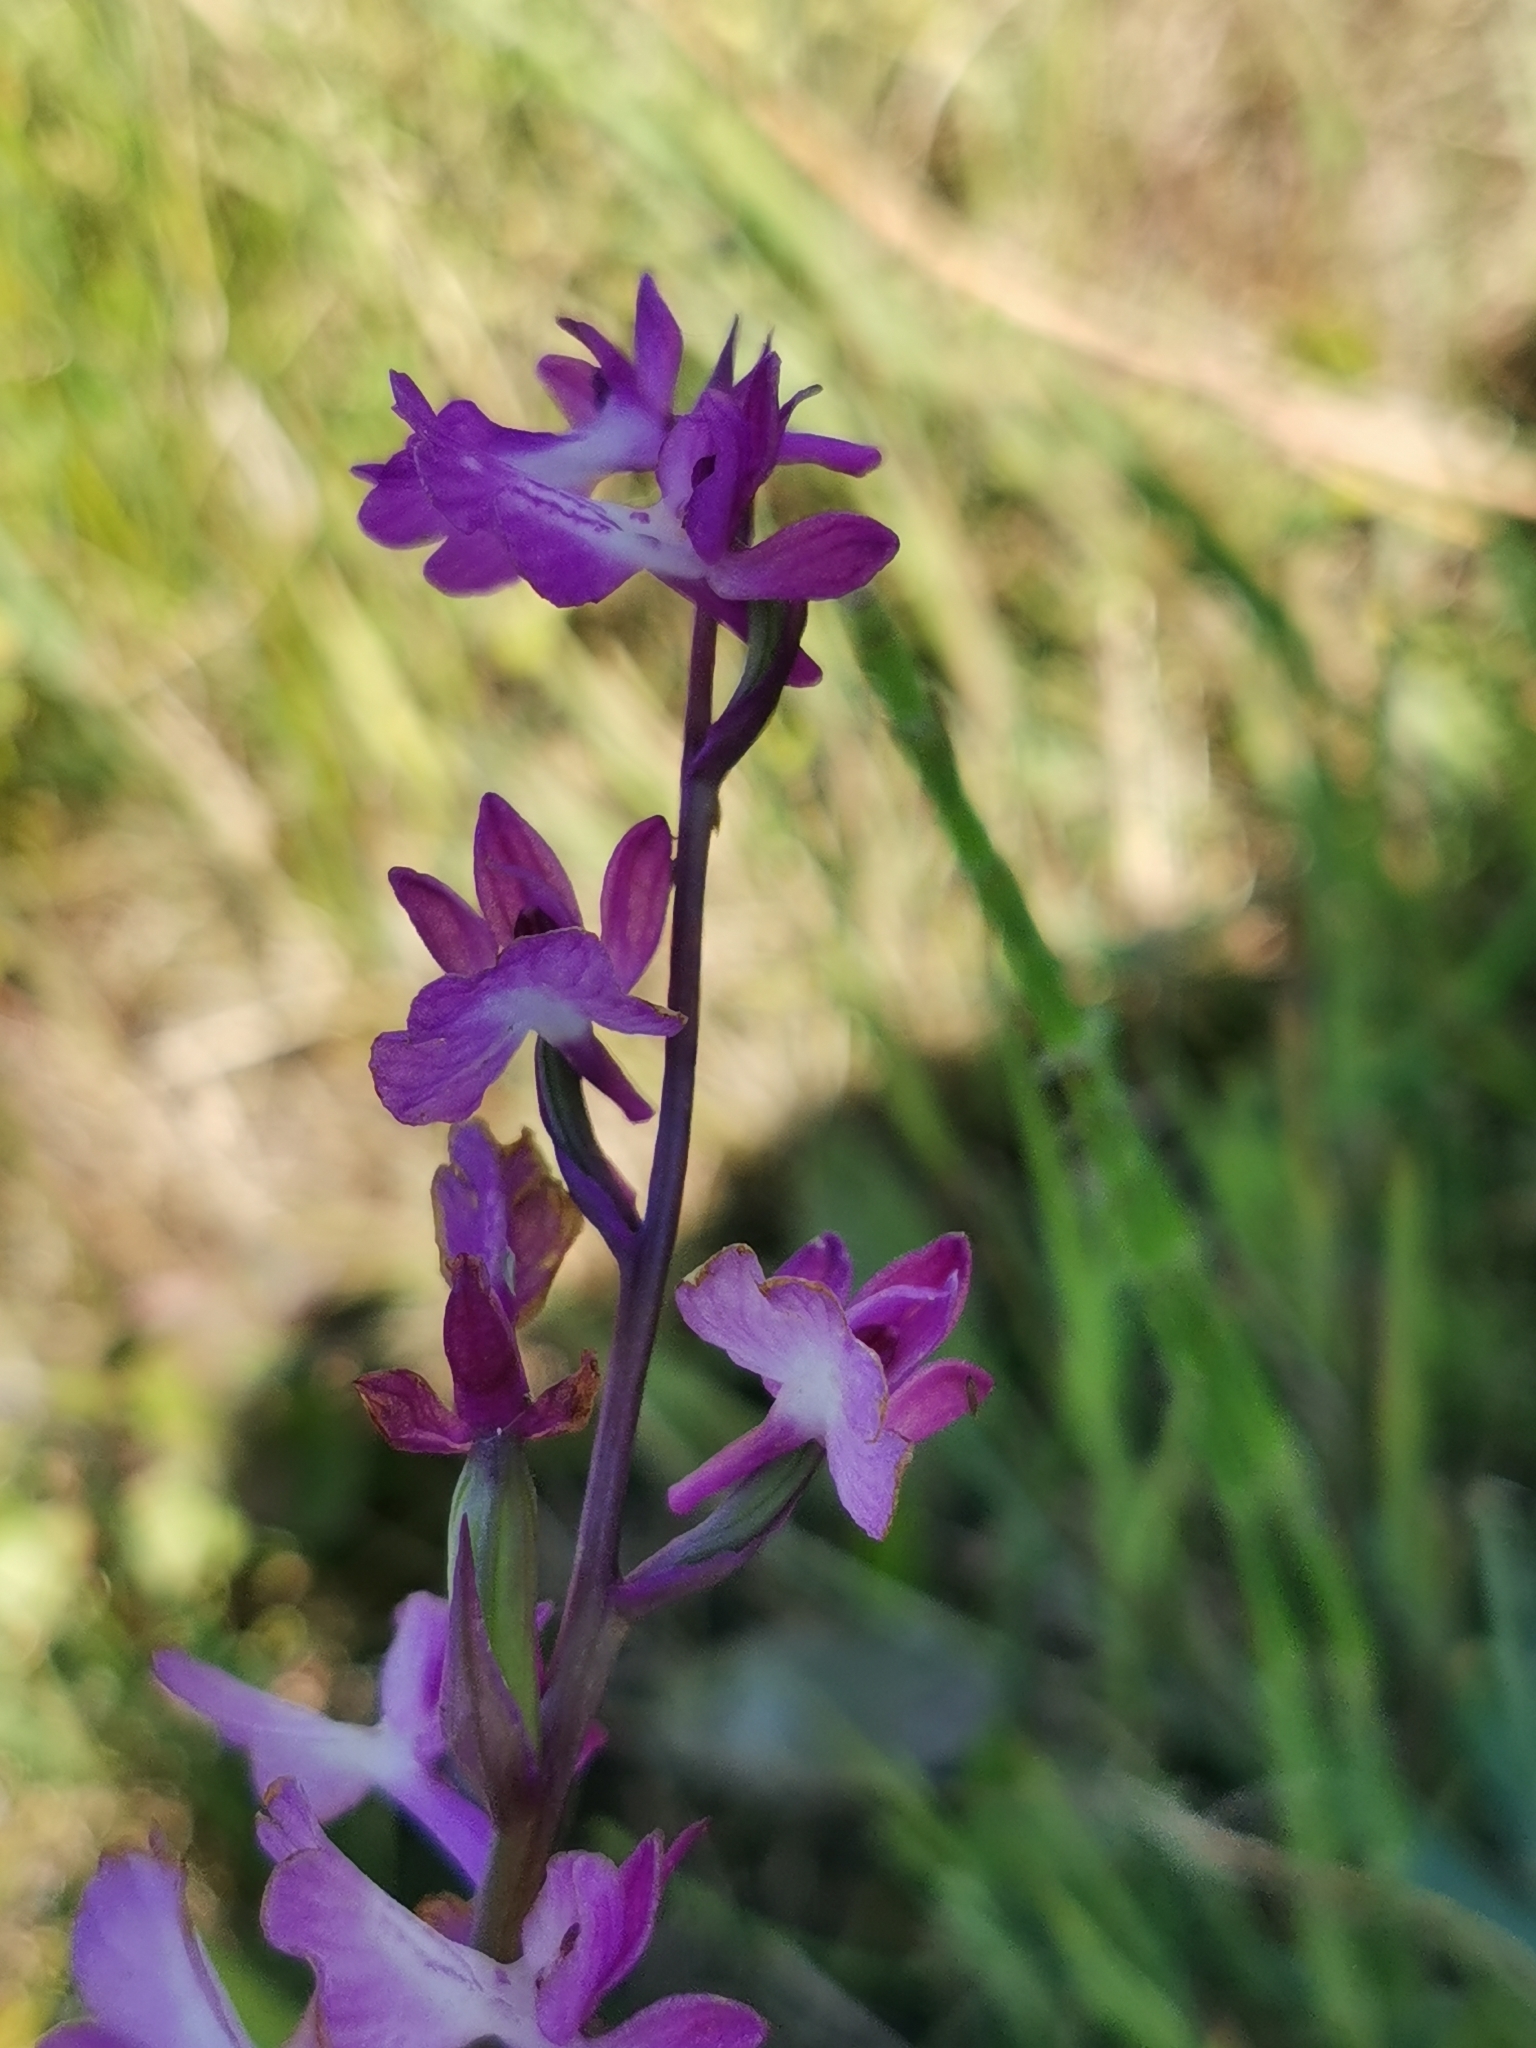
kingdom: Plantae
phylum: Tracheophyta
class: Liliopsida
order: Asparagales
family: Orchidaceae
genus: Anacamptis
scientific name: Anacamptis palustris
